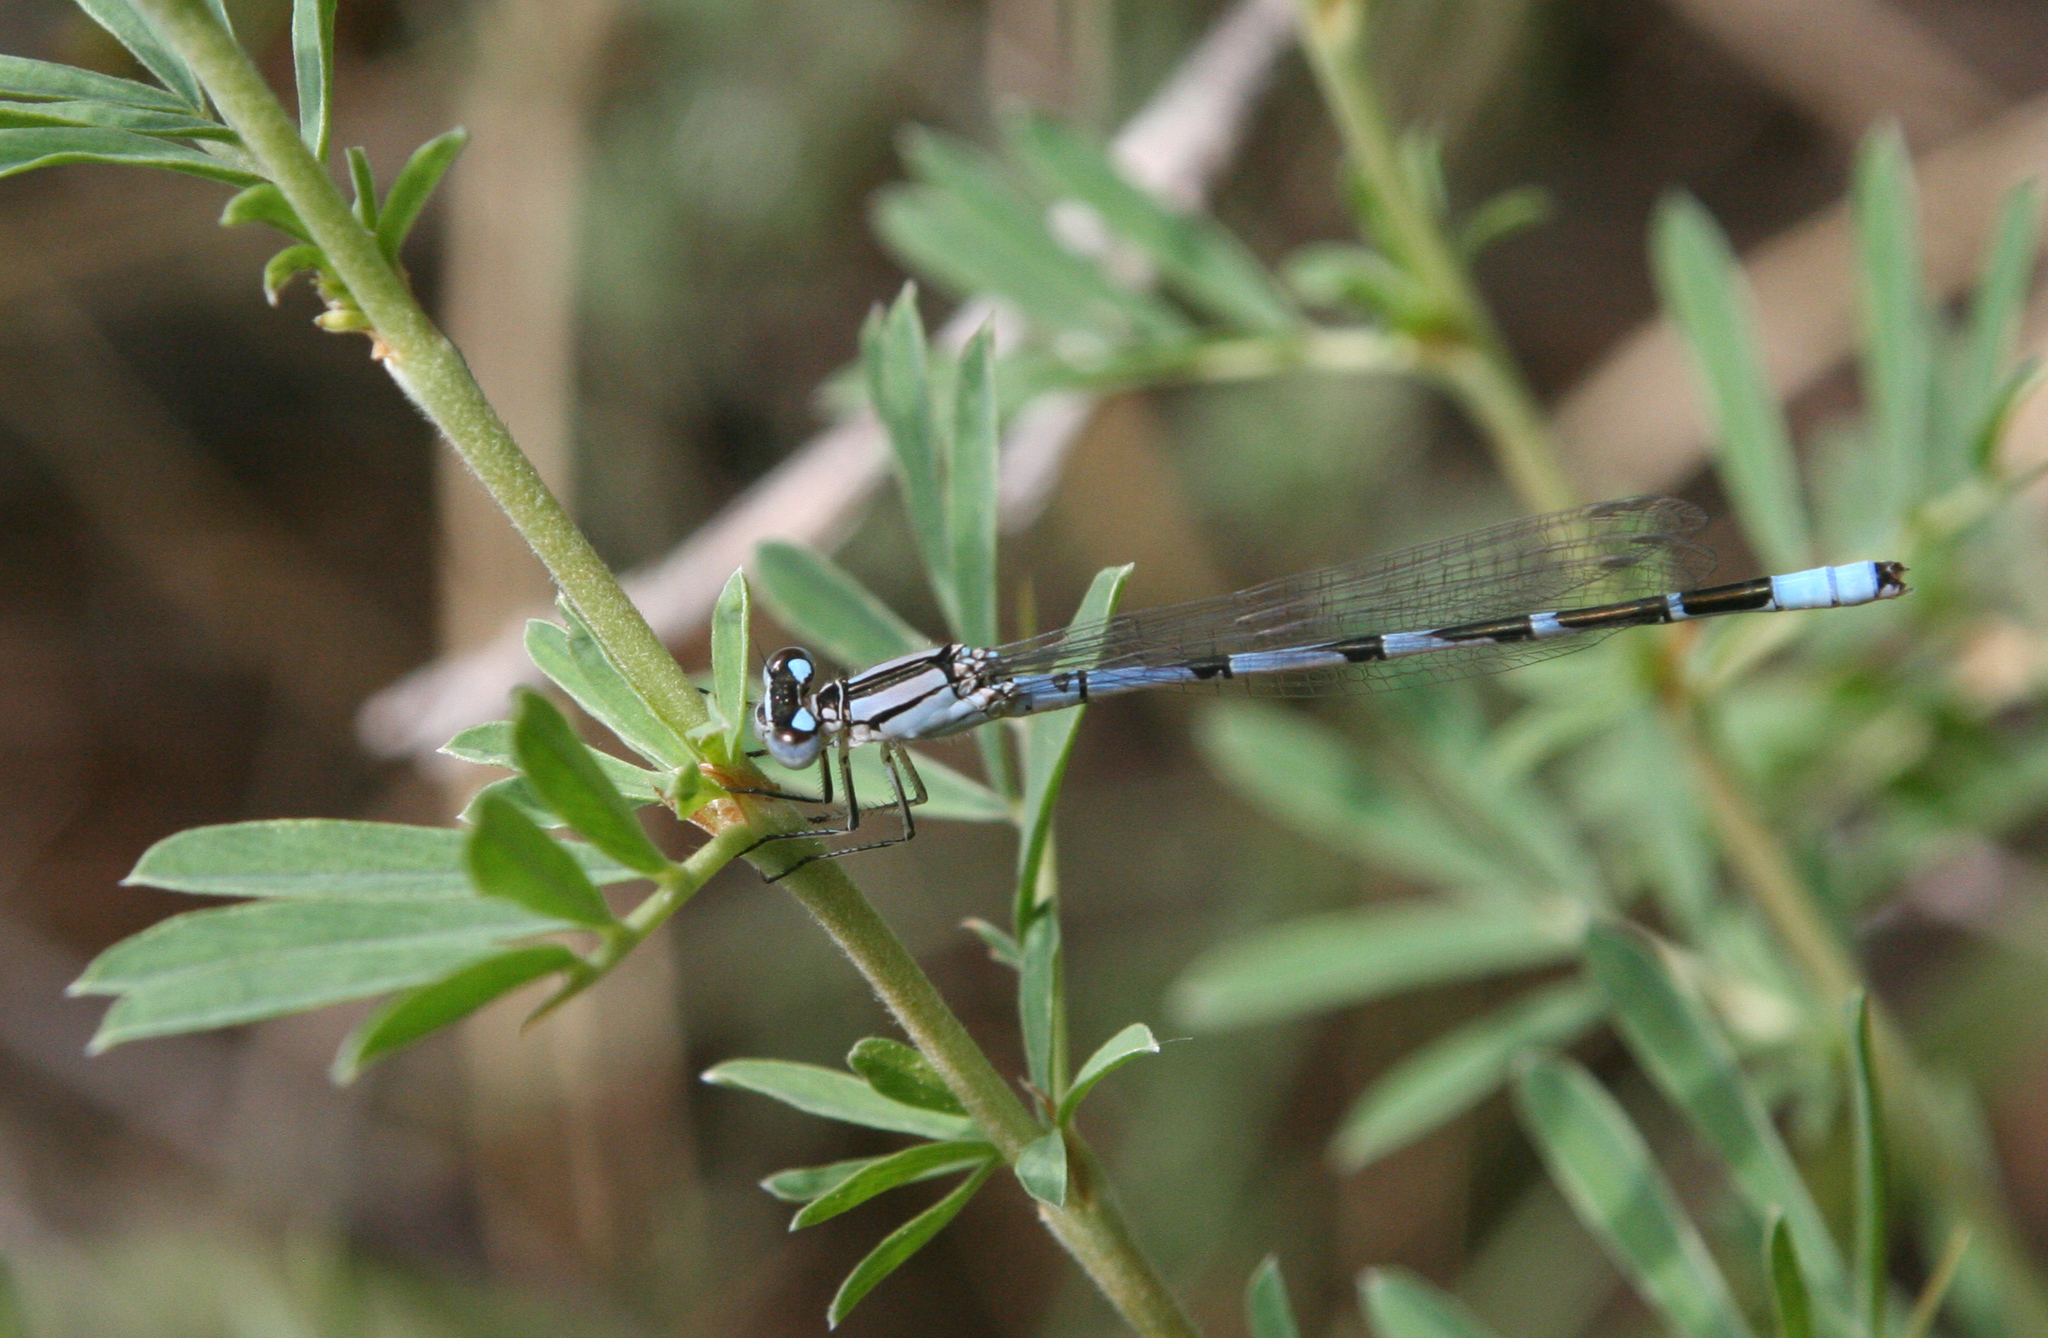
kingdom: Plantae
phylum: Tracheophyta
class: Magnoliopsida
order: Fabales
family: Fabaceae
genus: Caragana
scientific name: Caragana spinosa
